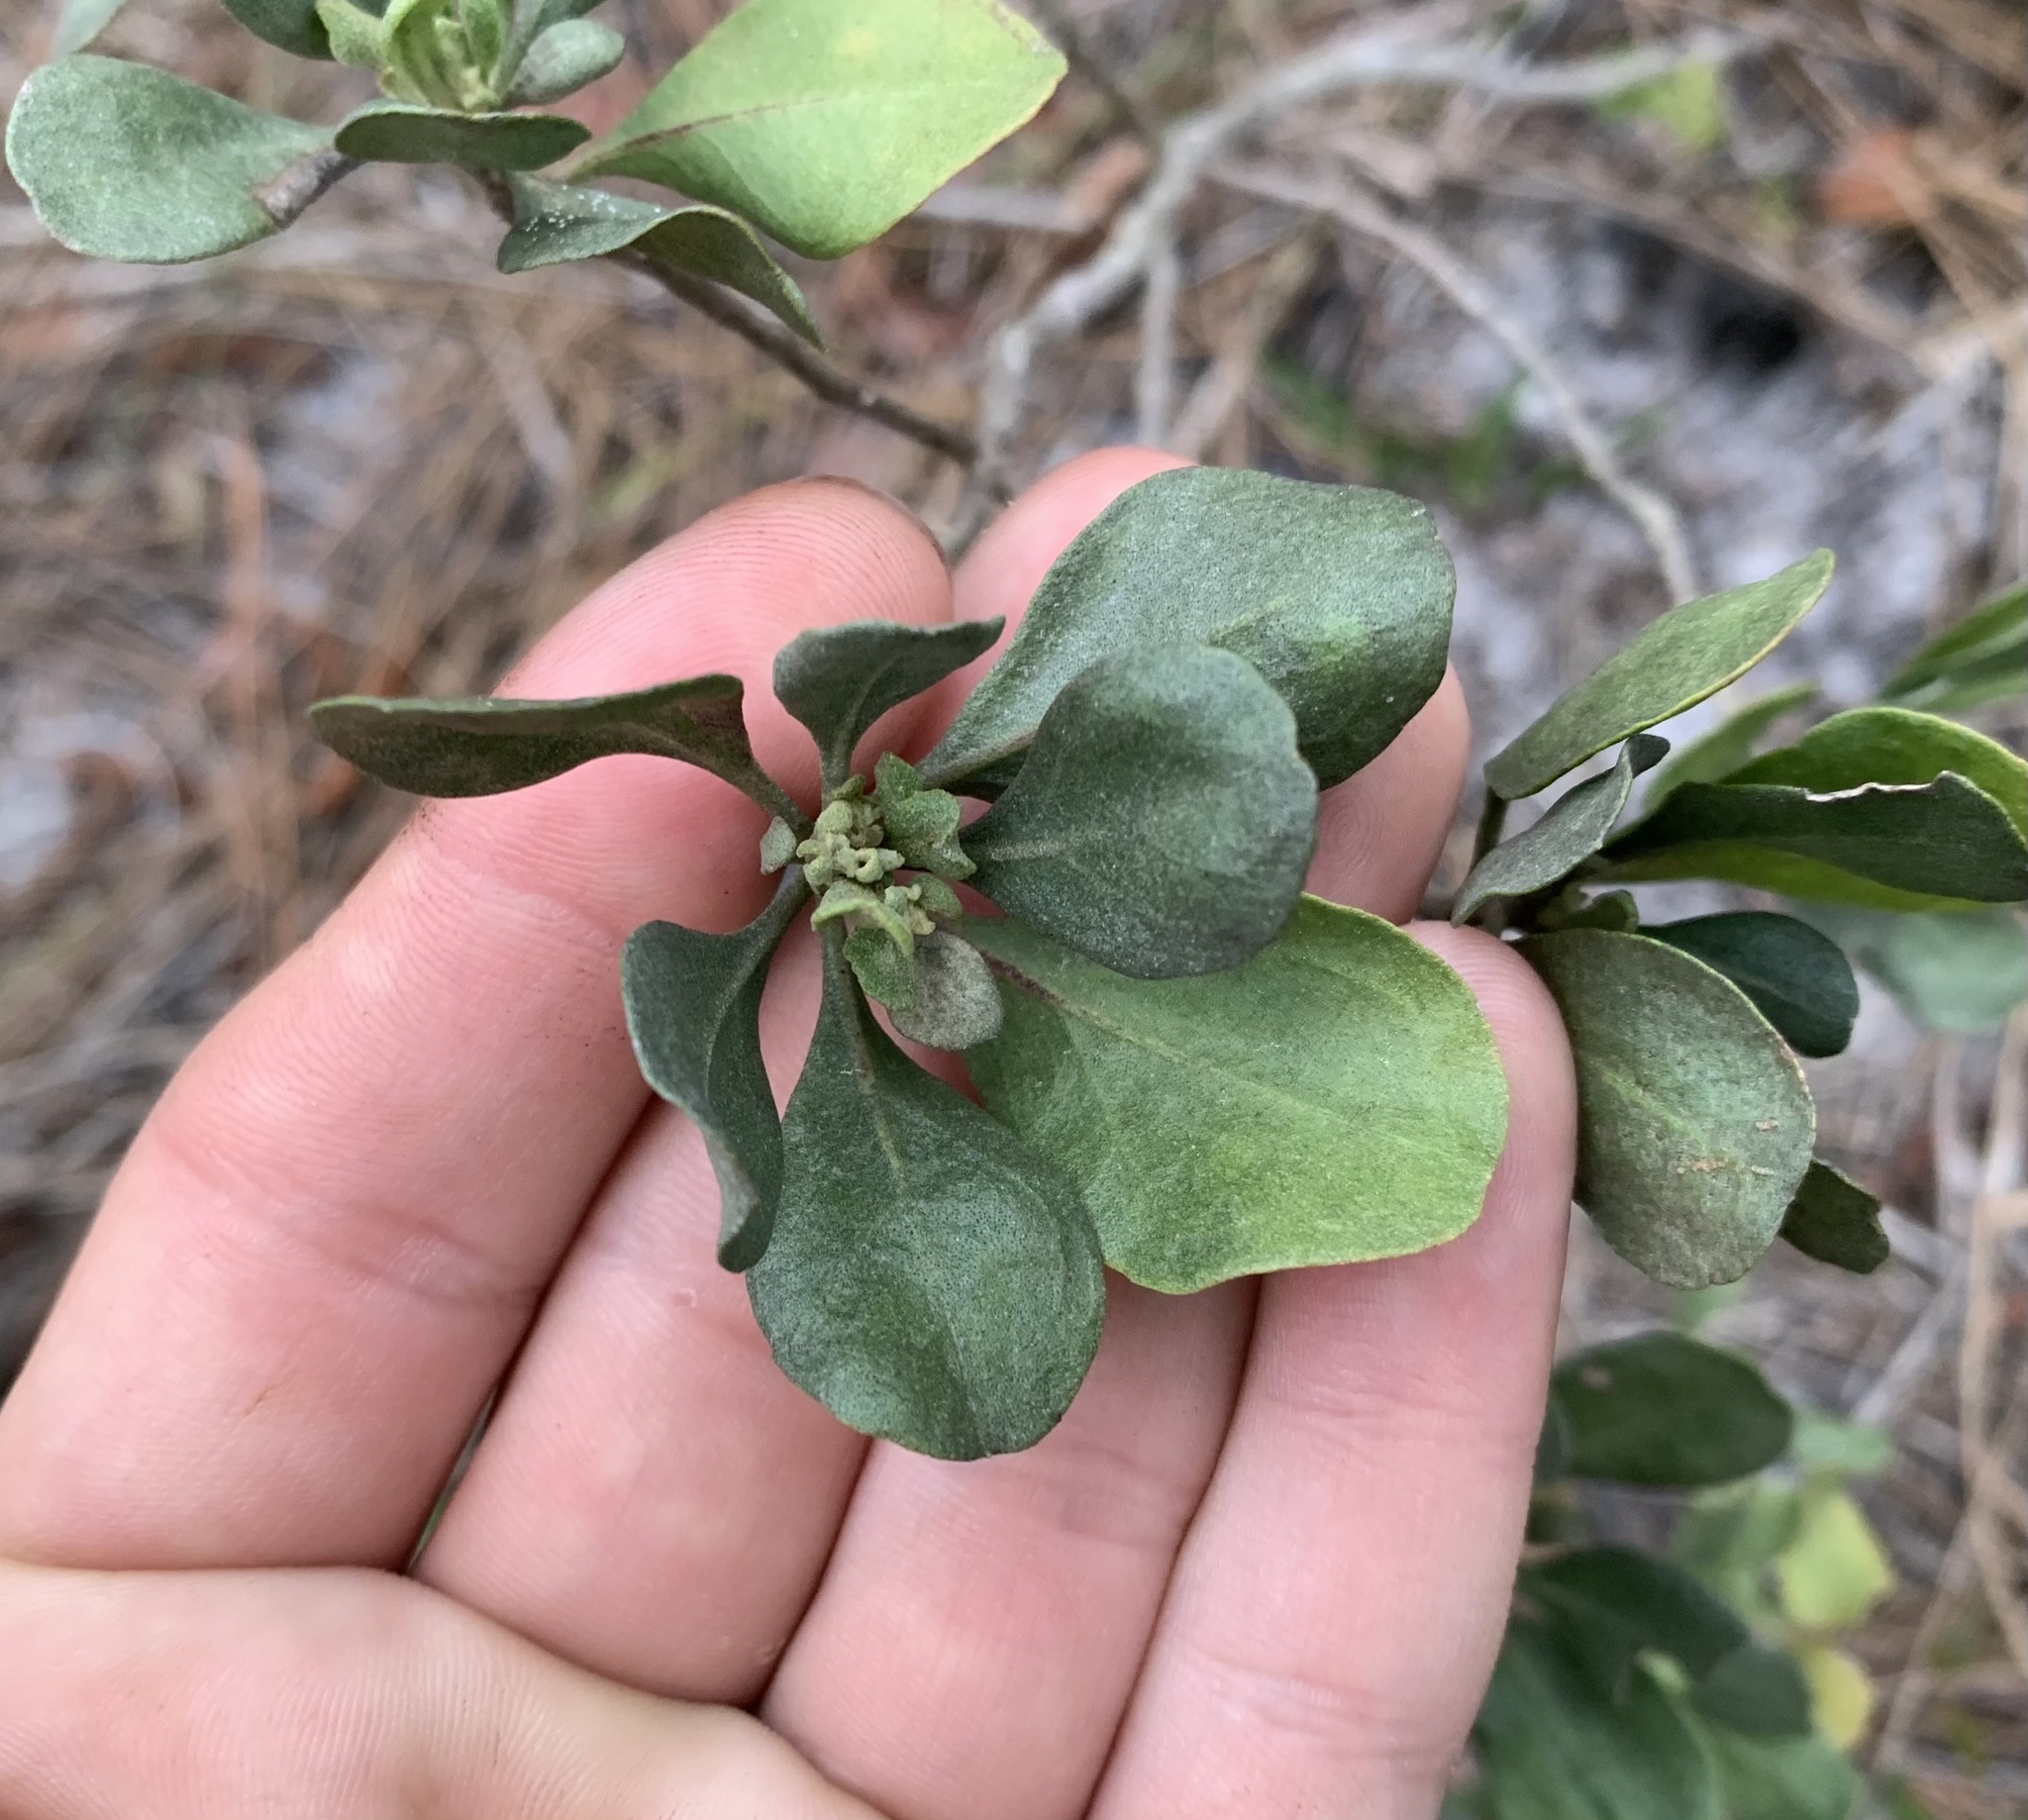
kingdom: Plantae
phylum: Tracheophyta
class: Magnoliopsida
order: Asterales
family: Asteraceae
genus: Garberia
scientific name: Garberia heterophylla
